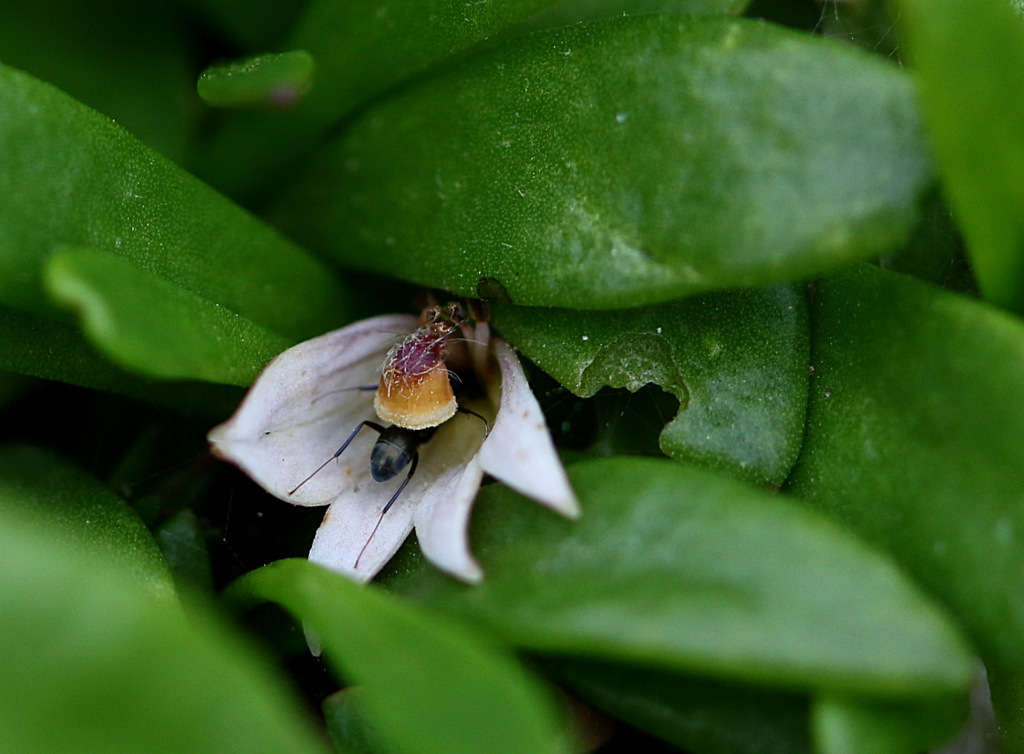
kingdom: Plantae
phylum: Tracheophyta
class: Magnoliopsida
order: Asterales
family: Goodeniaceae
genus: Goodenia
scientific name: Goodenia radicans
